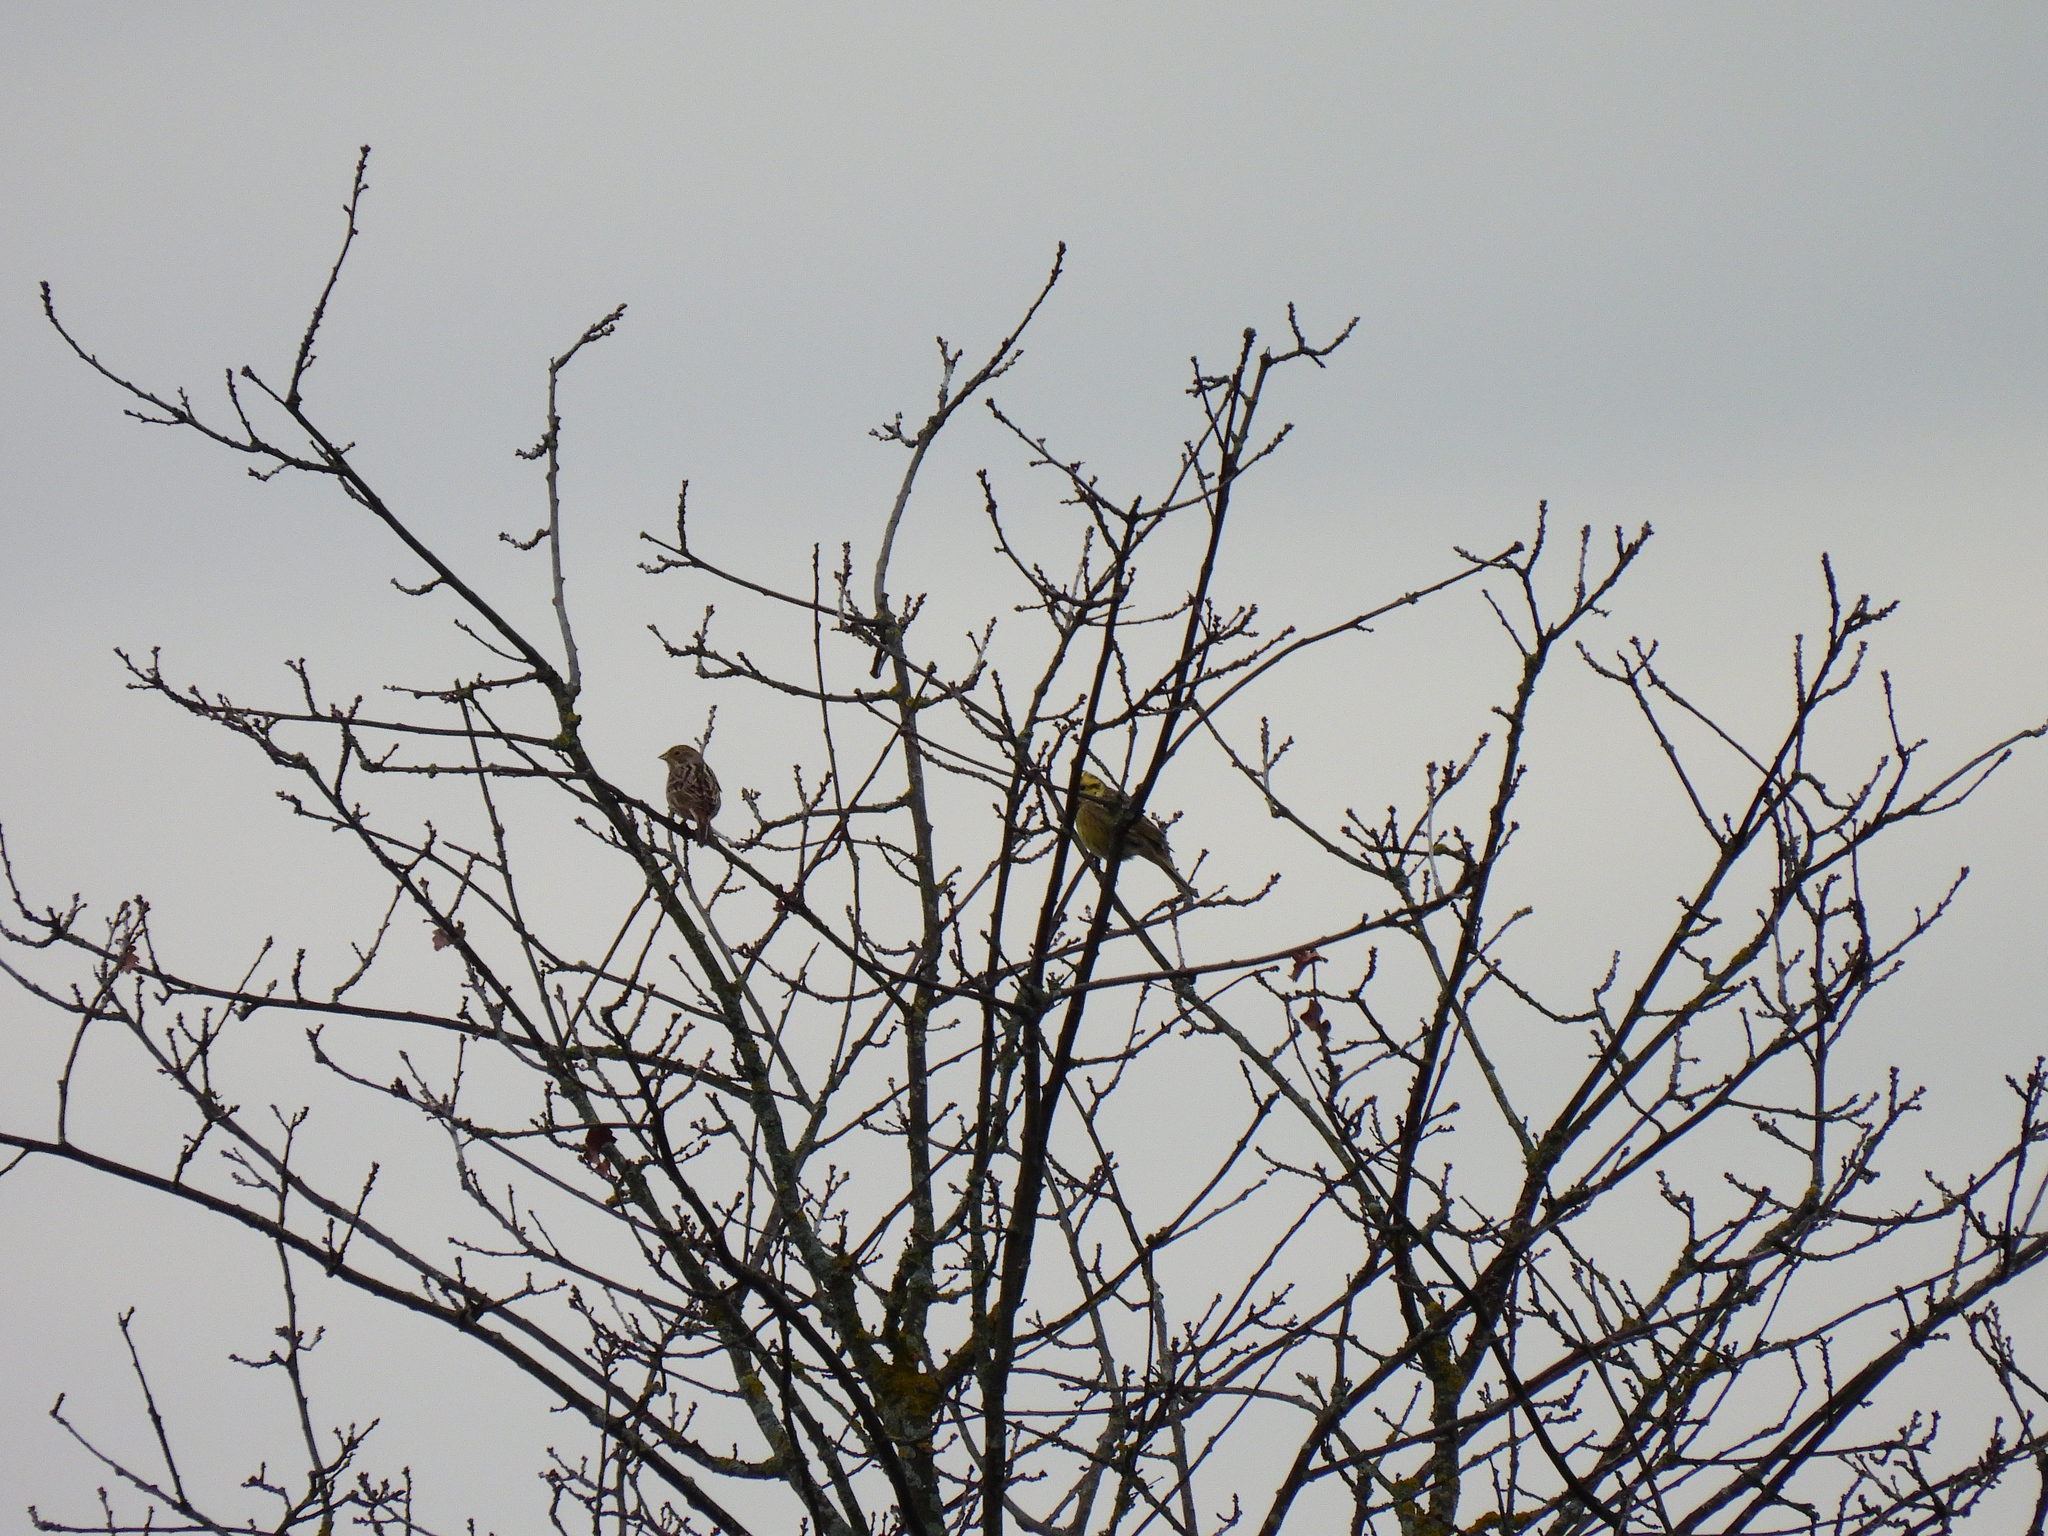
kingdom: Animalia
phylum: Chordata
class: Aves
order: Passeriformes
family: Emberizidae
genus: Emberiza
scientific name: Emberiza citrinella
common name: Yellowhammer
